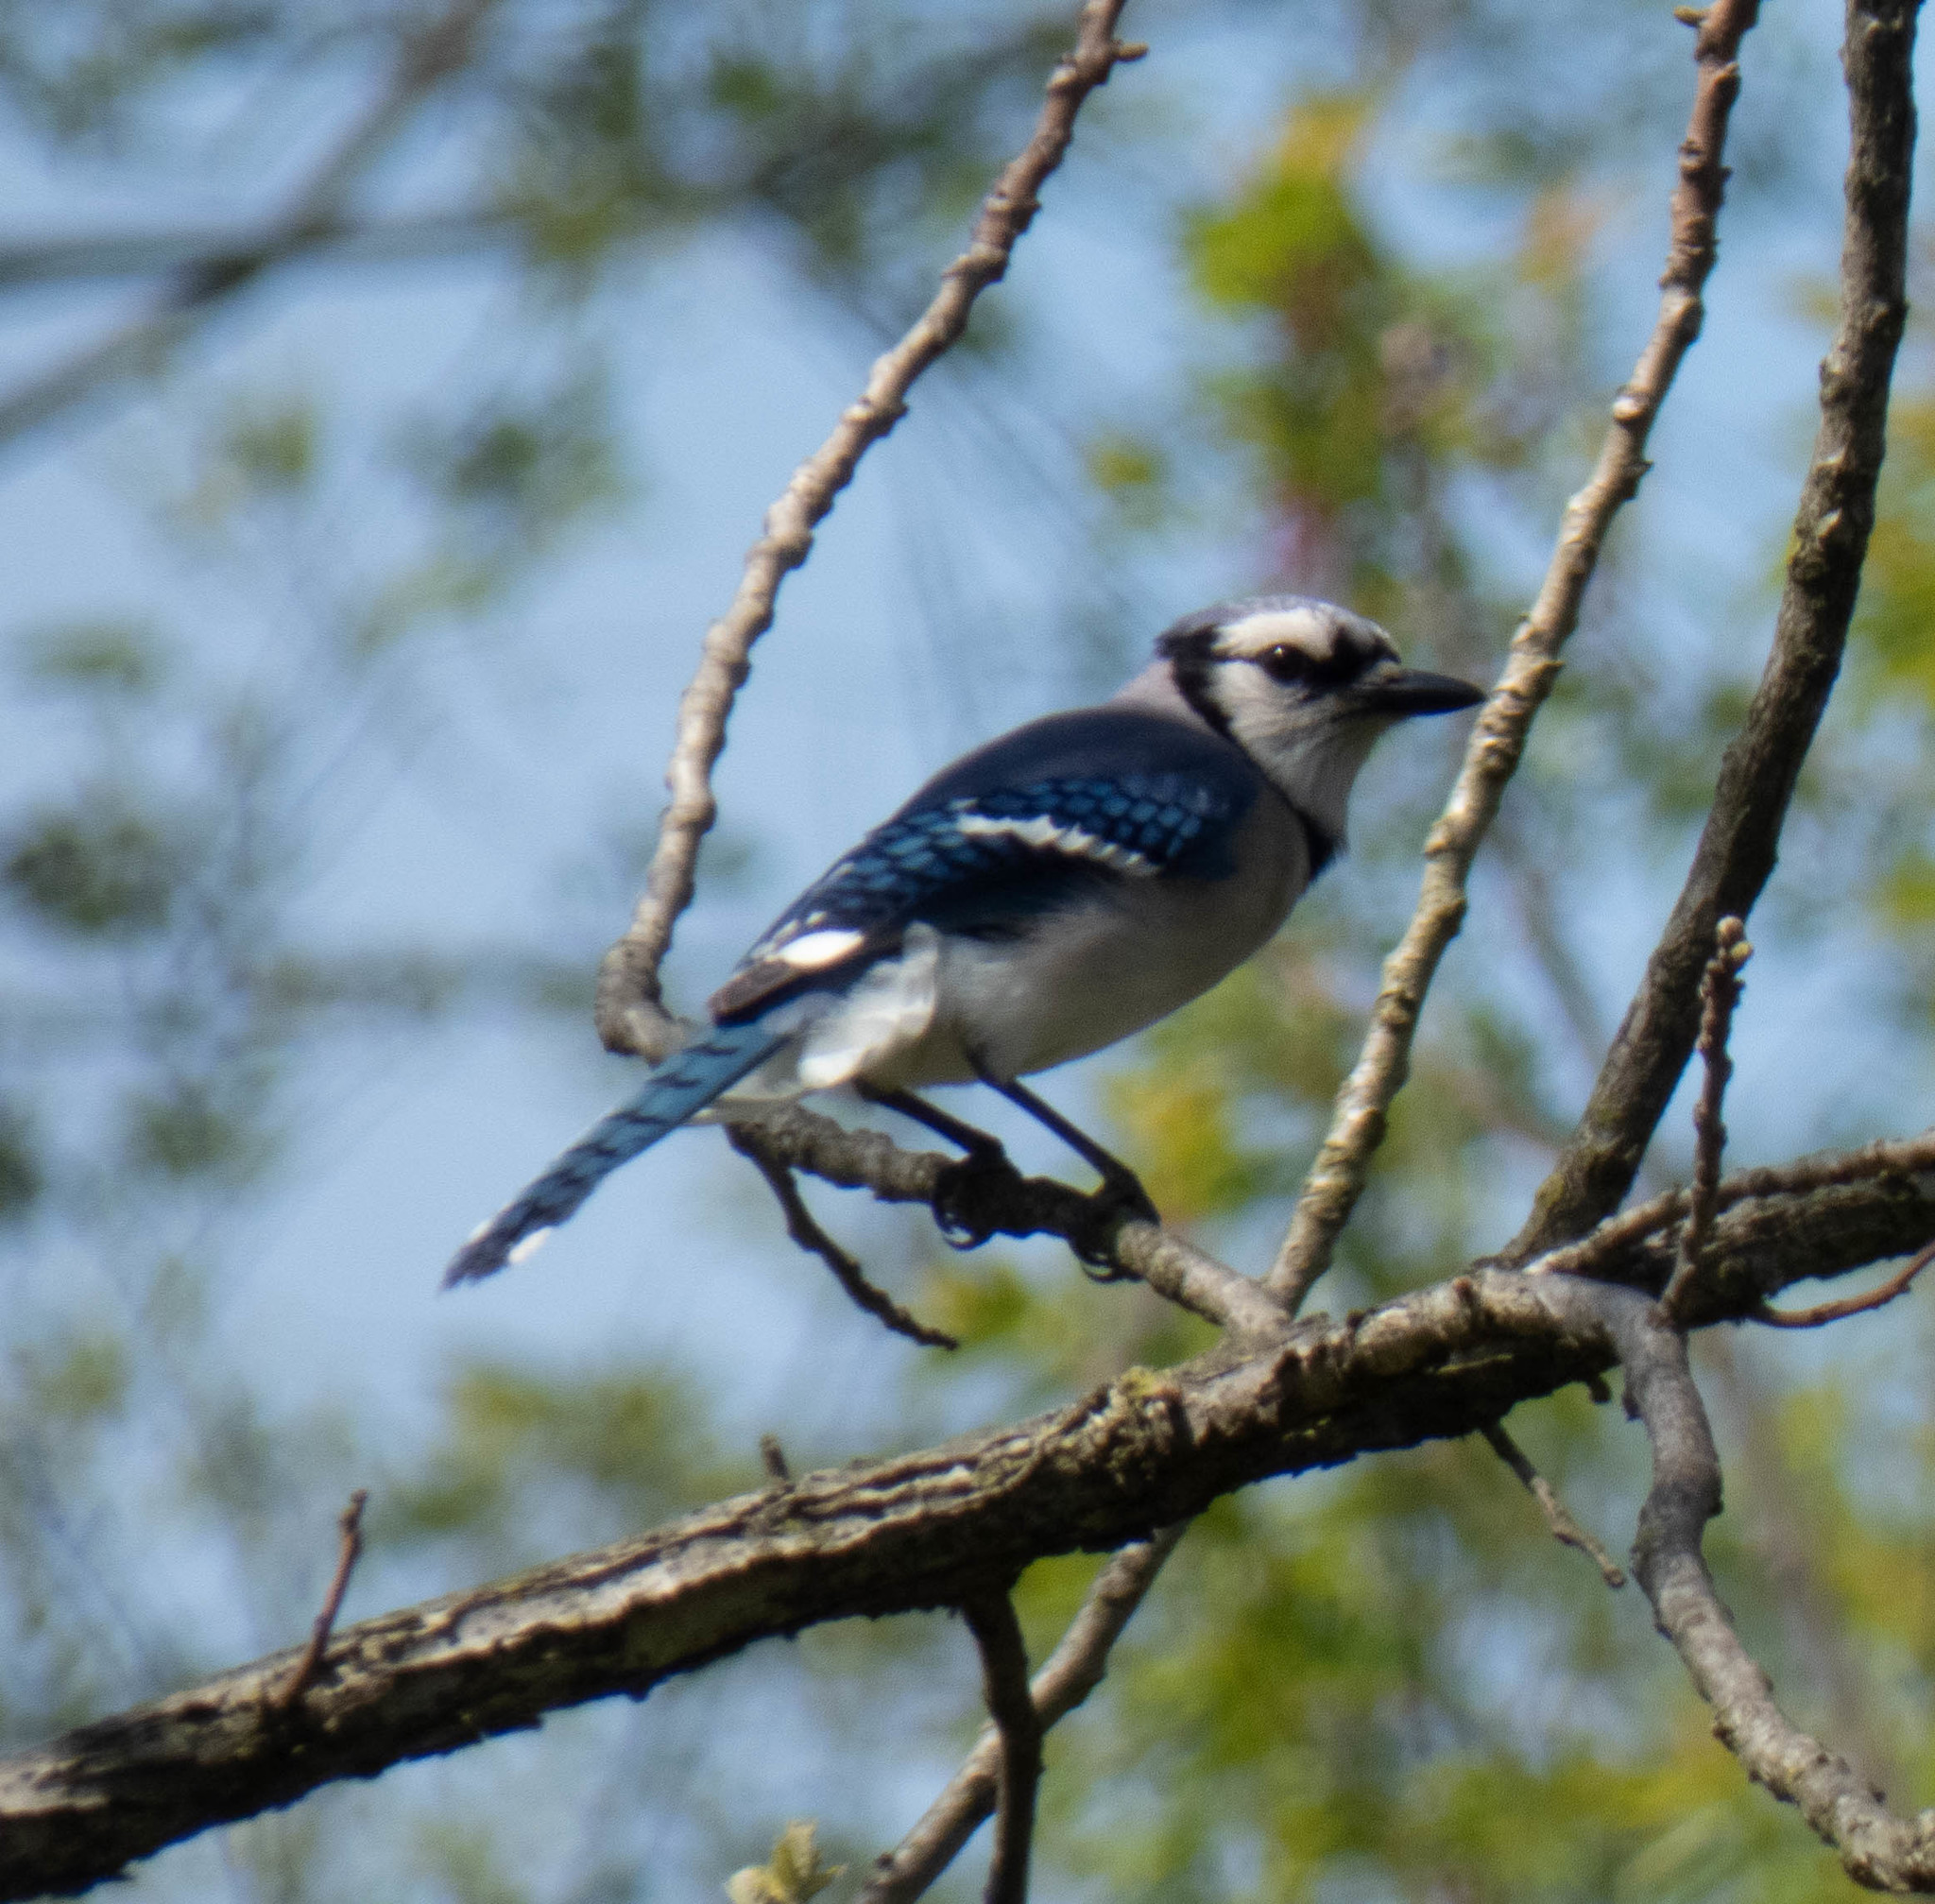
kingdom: Animalia
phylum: Chordata
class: Aves
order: Passeriformes
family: Corvidae
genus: Cyanocitta
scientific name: Cyanocitta cristata
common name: Blue jay
